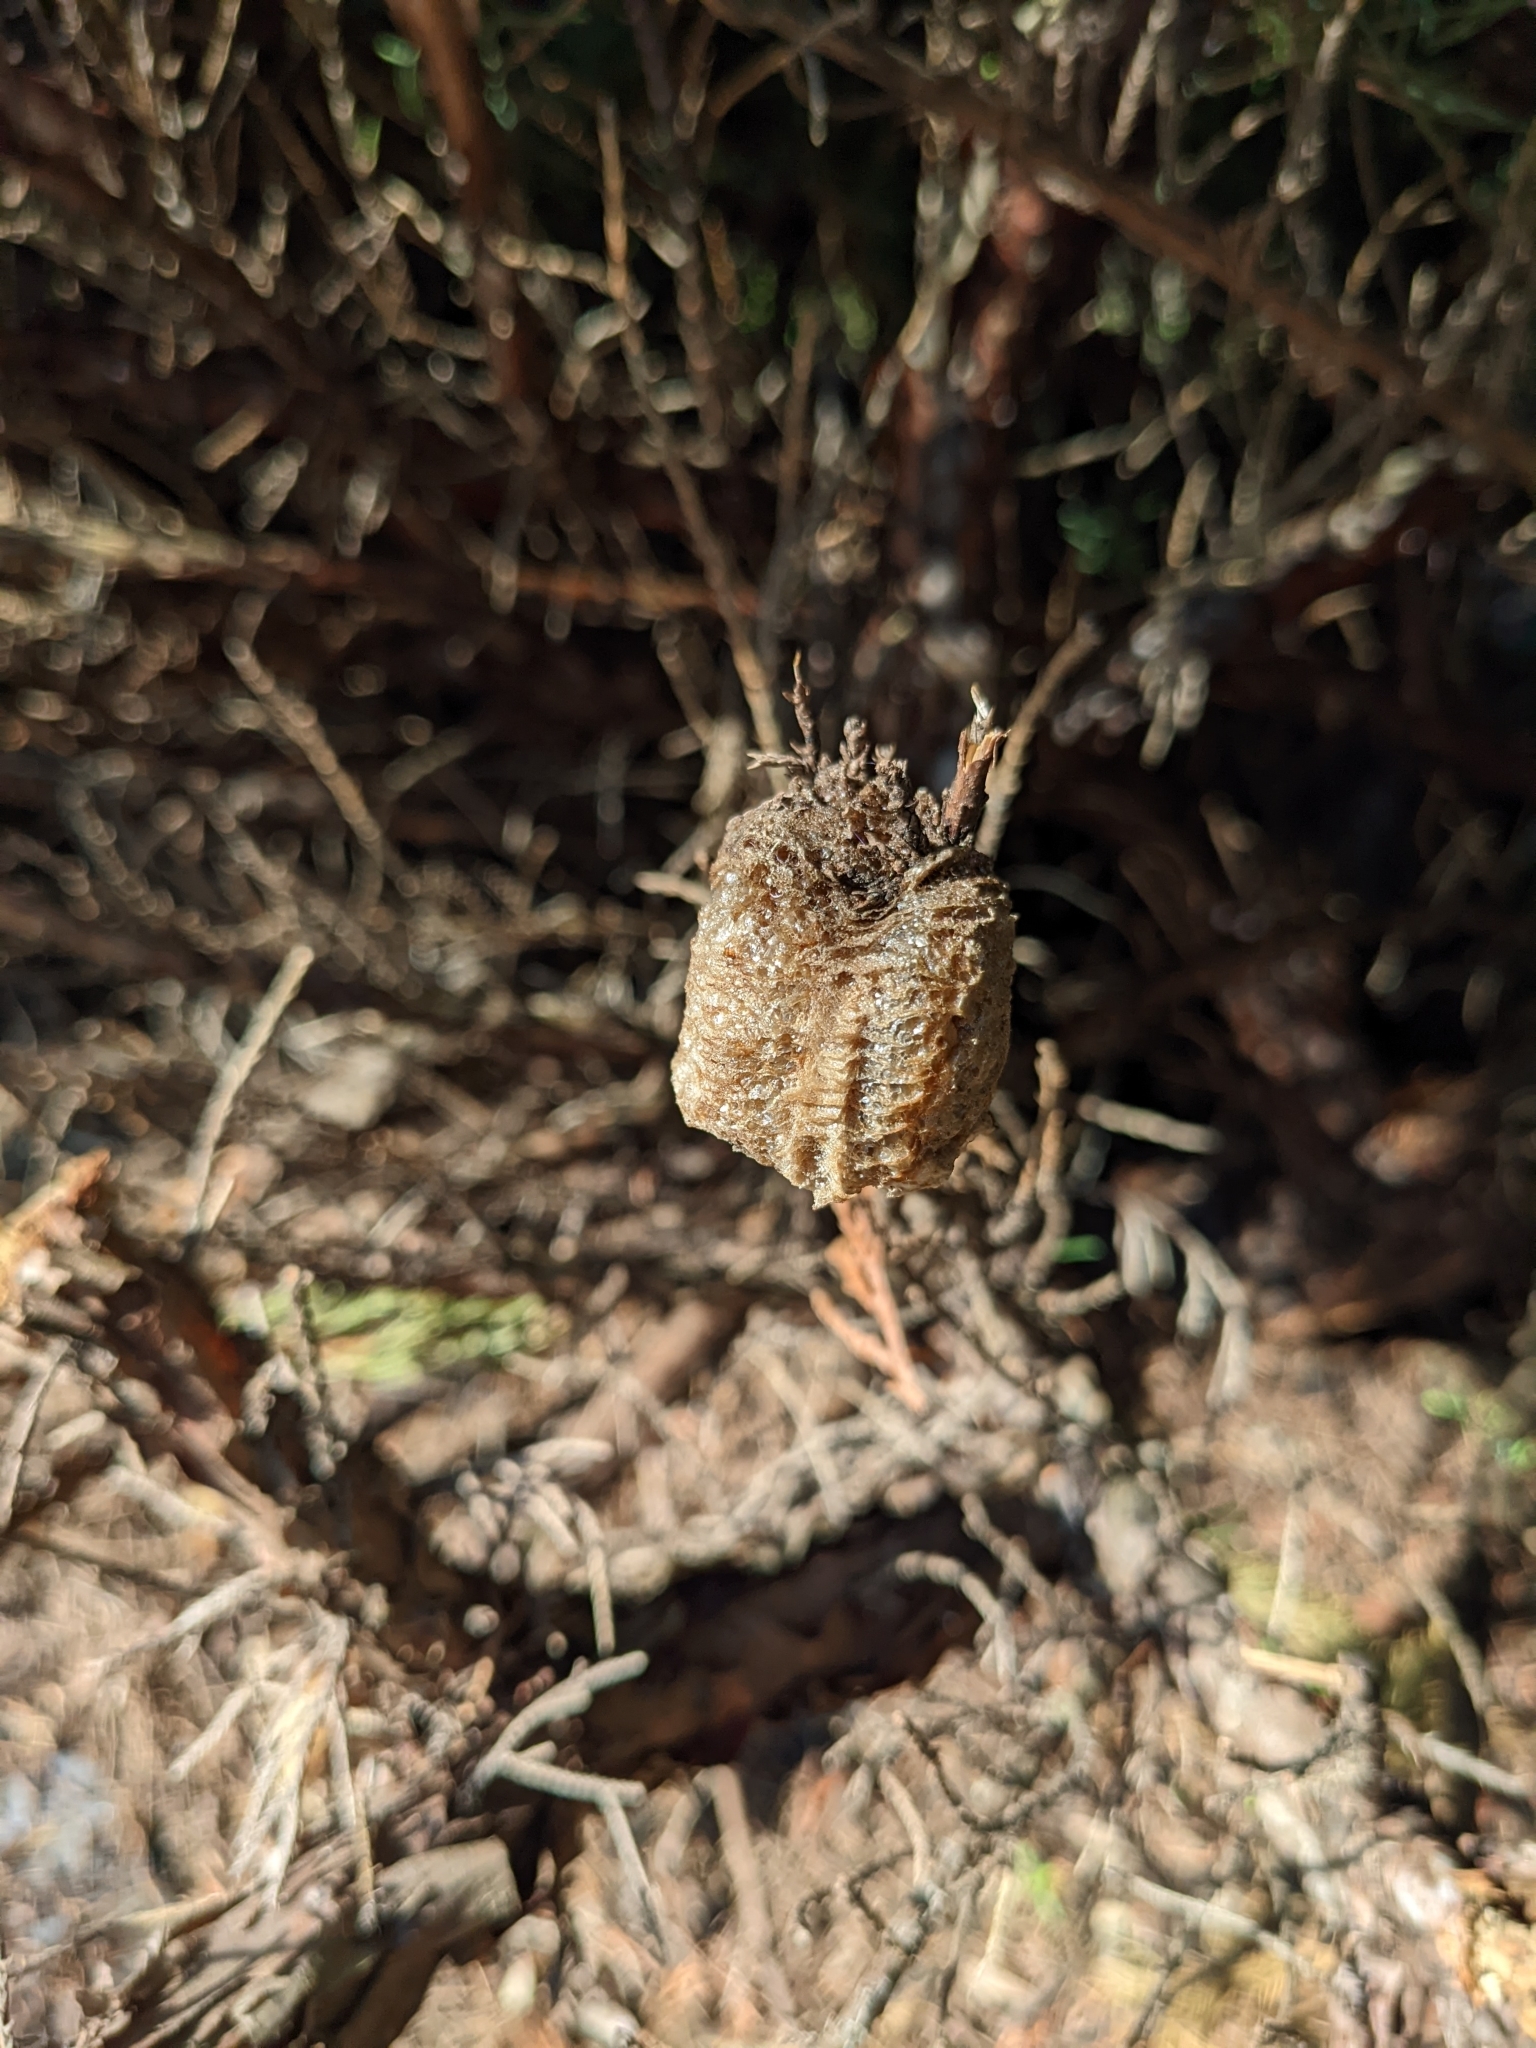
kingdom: Animalia
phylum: Arthropoda
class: Insecta
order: Mantodea
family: Mantidae
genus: Tenodera
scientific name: Tenodera sinensis
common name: Chinese mantis
